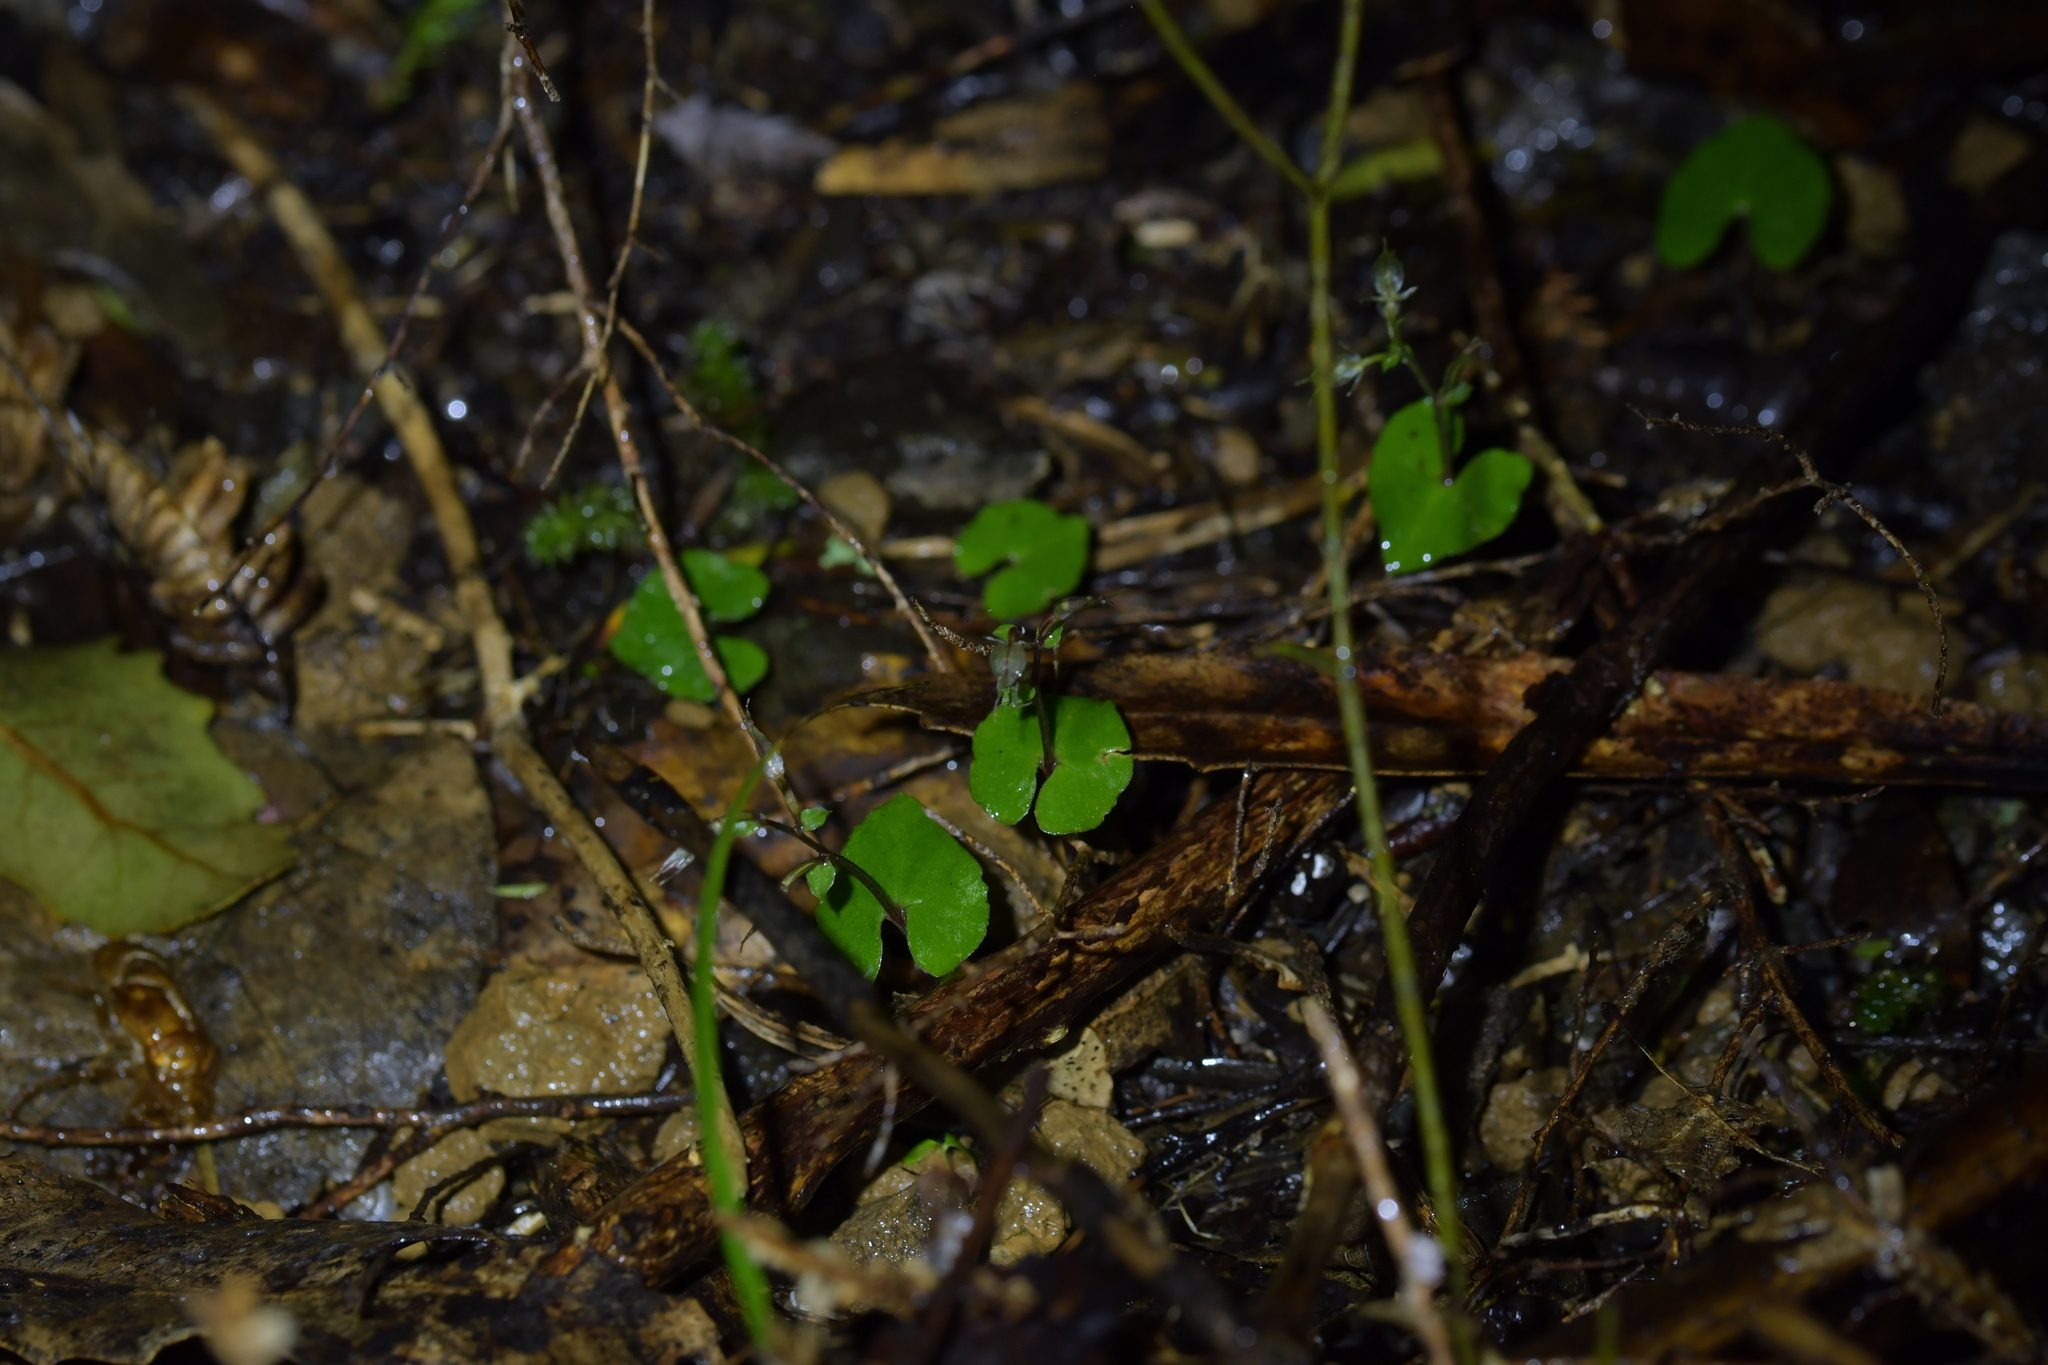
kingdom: Plantae
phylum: Tracheophyta
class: Liliopsida
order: Asparagales
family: Orchidaceae
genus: Acianthus
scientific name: Acianthus sinclairii
